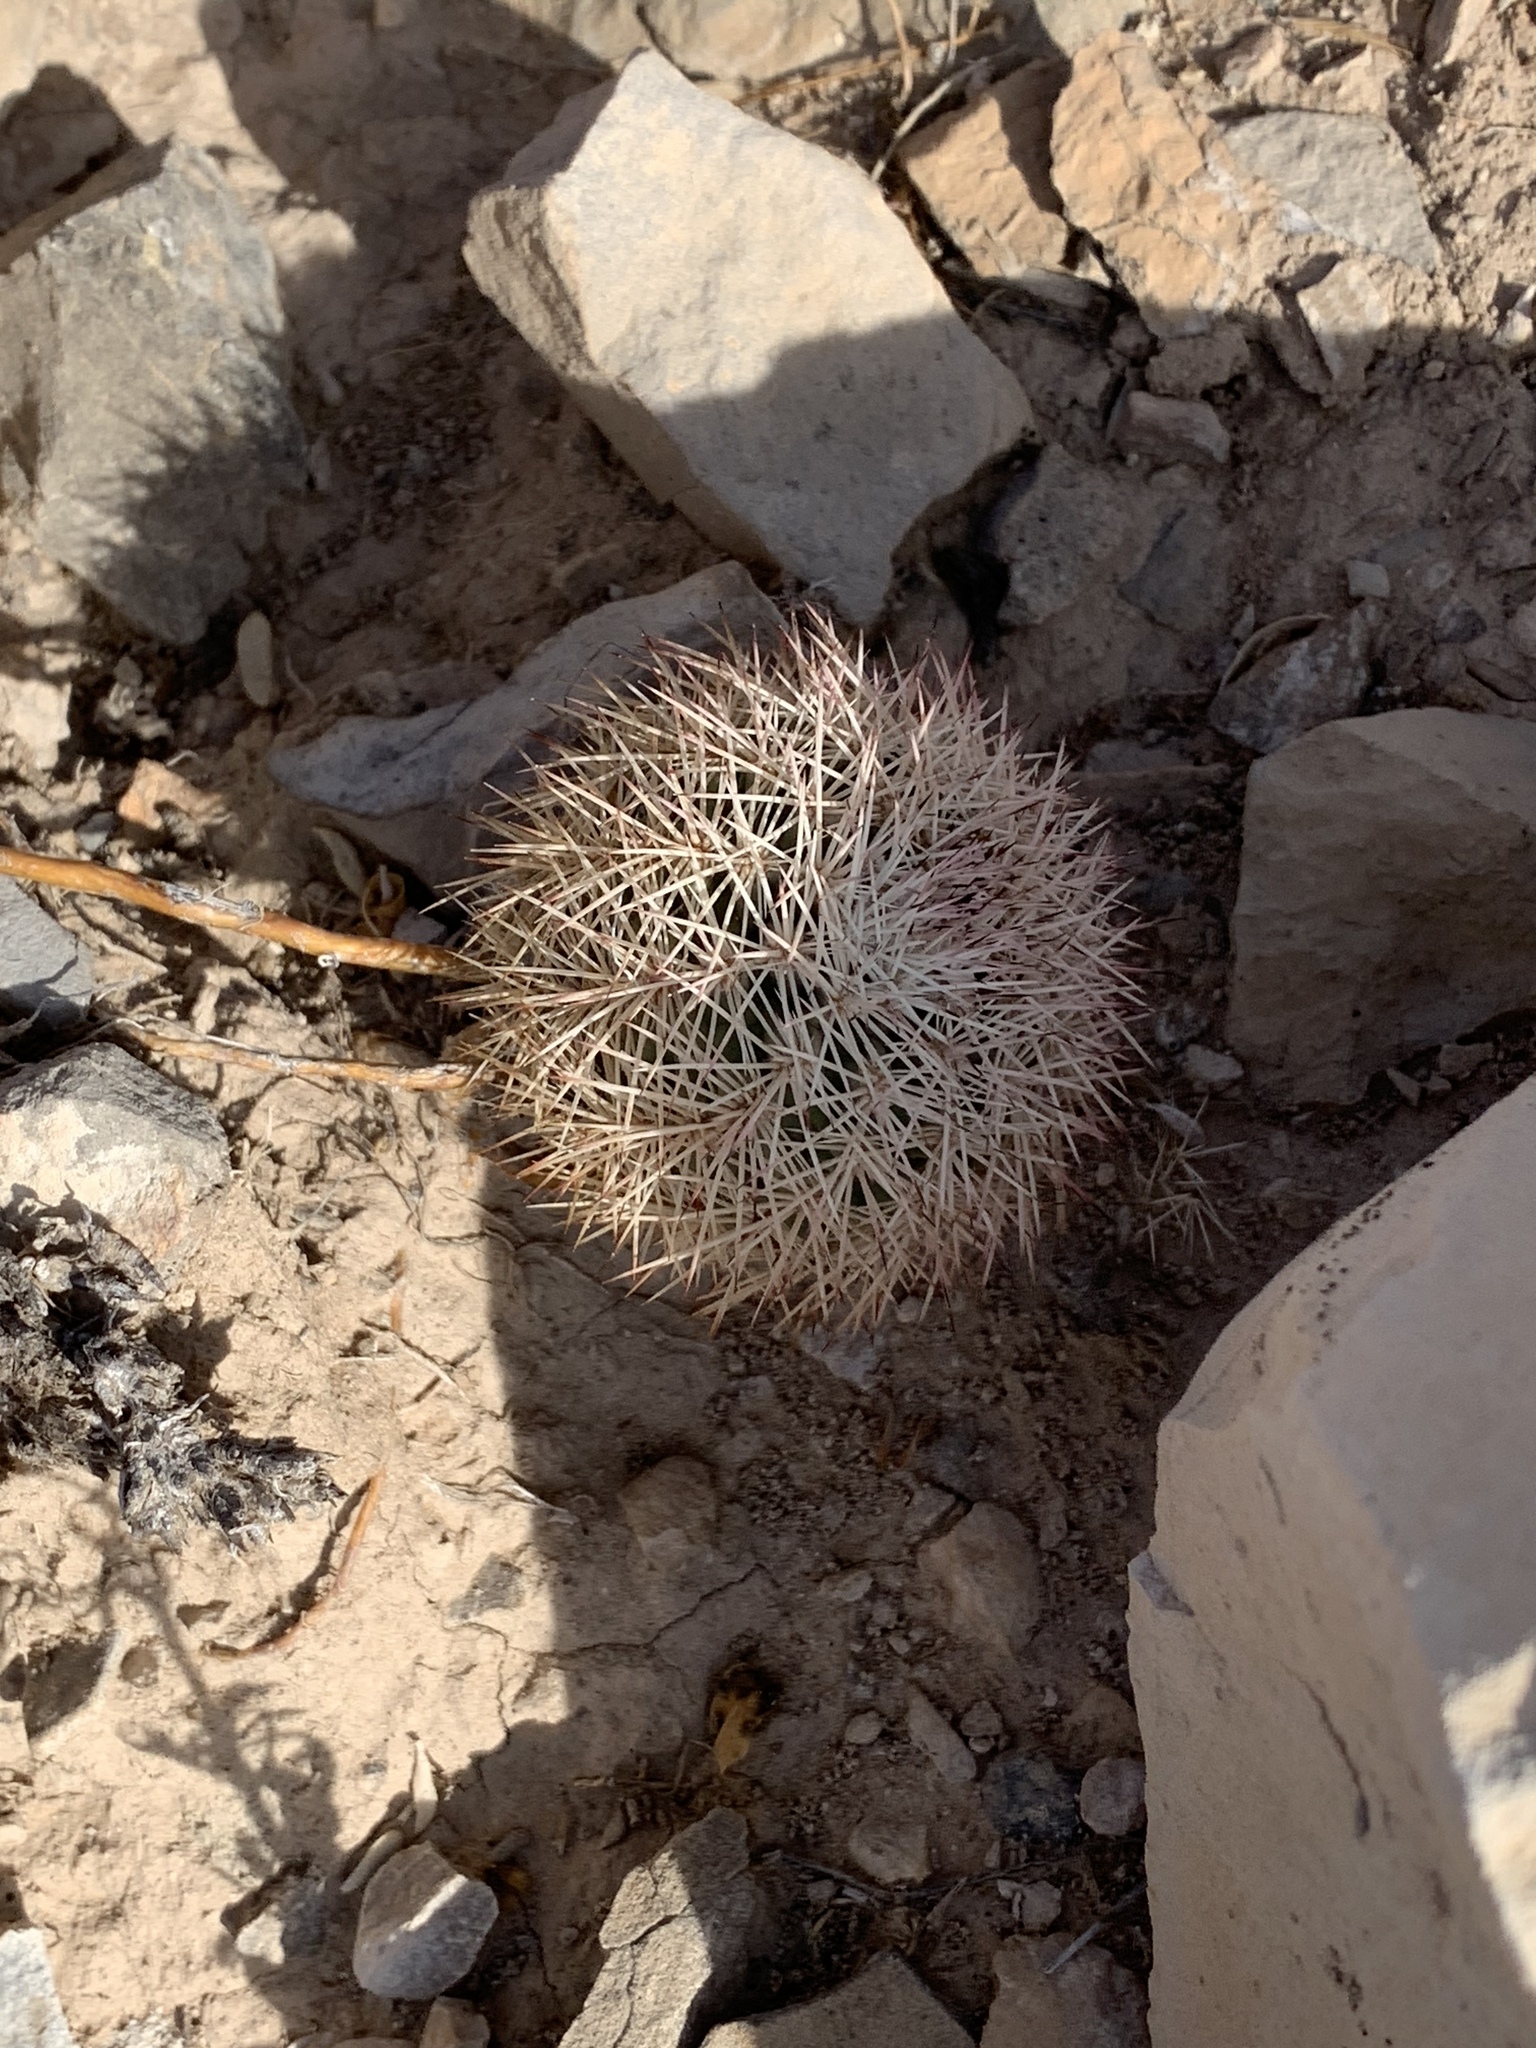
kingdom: Plantae
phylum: Tracheophyta
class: Magnoliopsida
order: Caryophyllales
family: Cactaceae
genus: Echinocereus
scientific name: Echinocereus dasyacanthus
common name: Spiny hedgehog cactus
